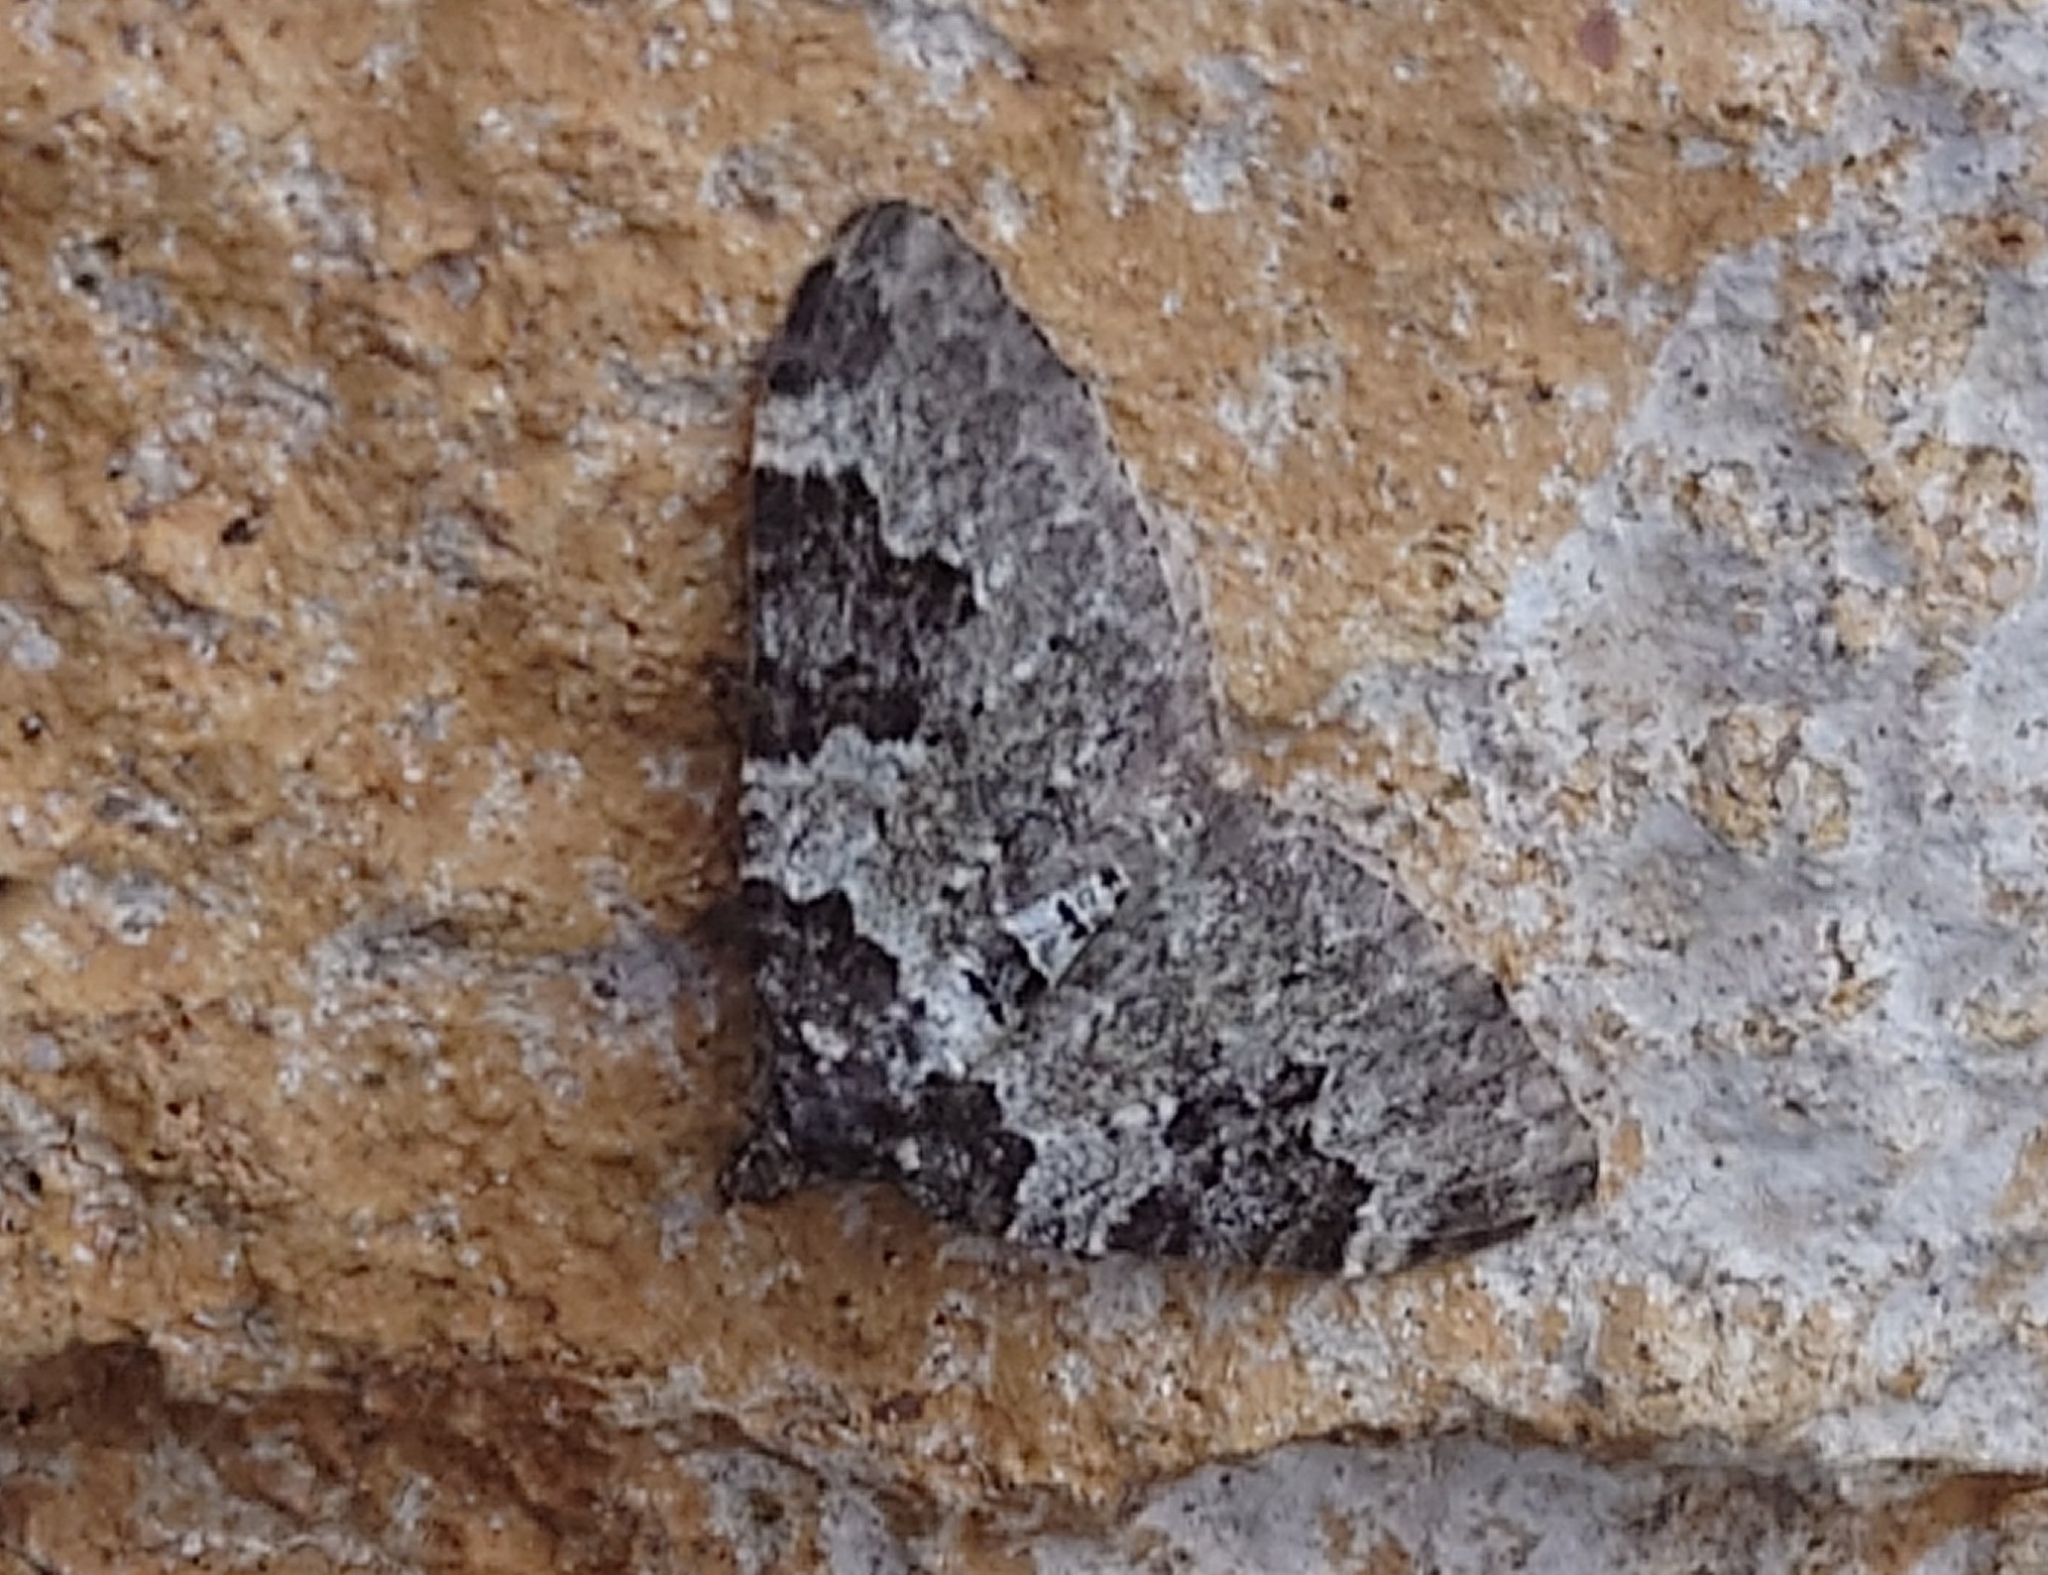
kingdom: Animalia
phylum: Arthropoda
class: Insecta
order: Lepidoptera
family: Geometridae
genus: Xanthorhoe
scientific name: Xanthorhoe fluctuata
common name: Garden carpet
